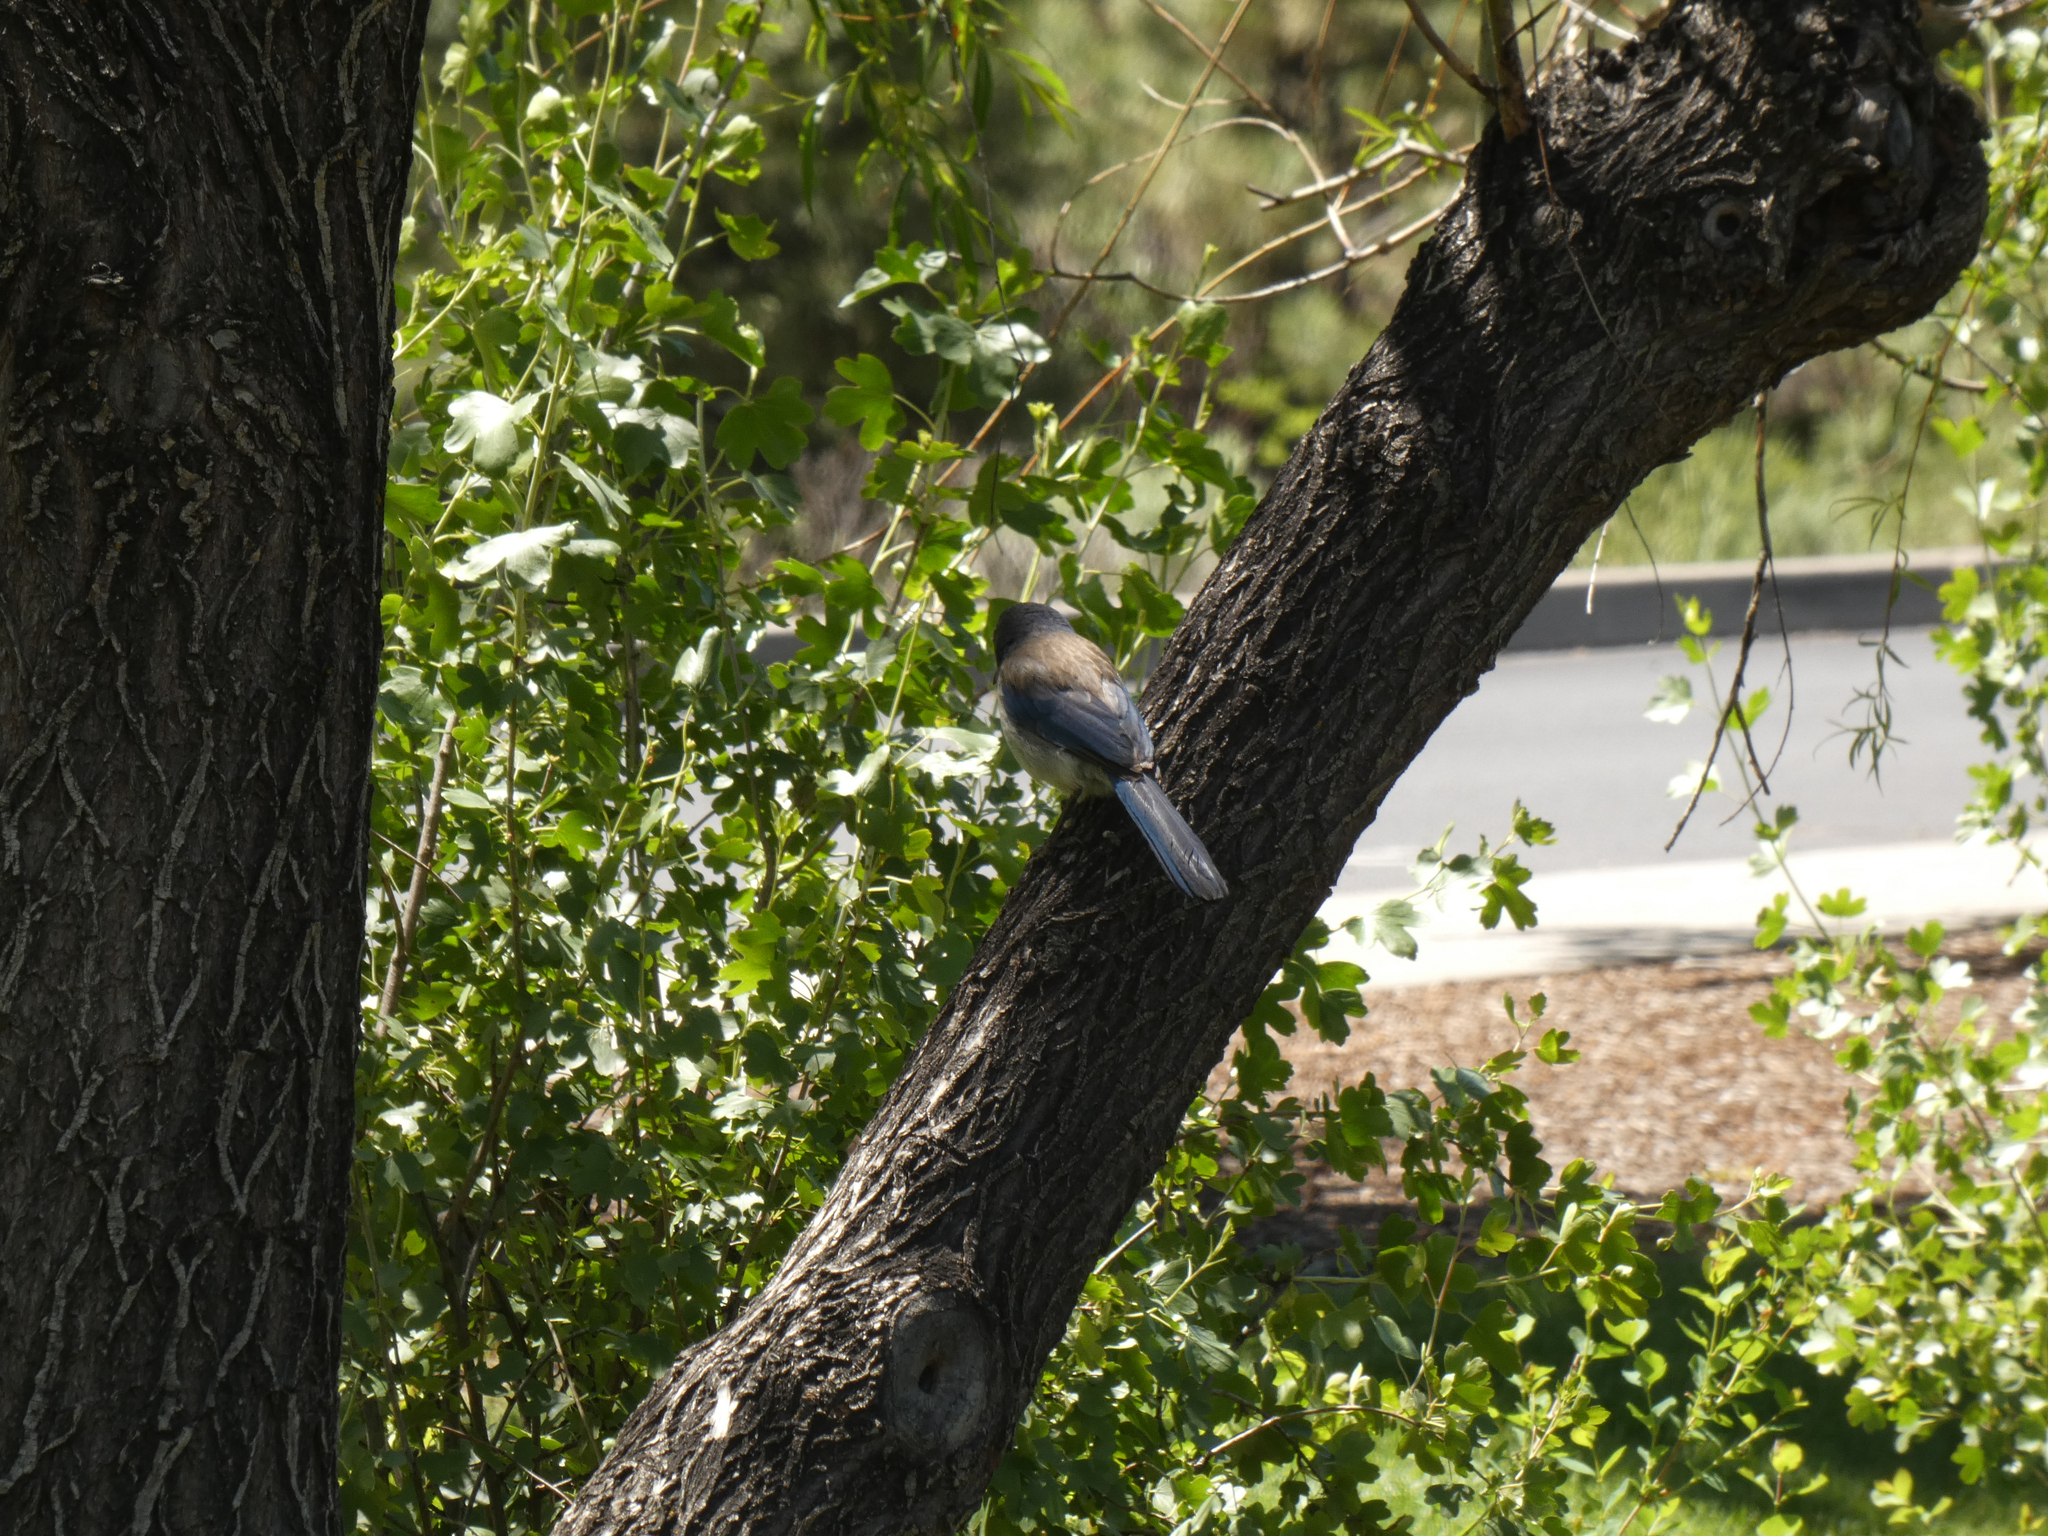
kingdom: Animalia
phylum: Chordata
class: Aves
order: Passeriformes
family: Corvidae
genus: Aphelocoma
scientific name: Aphelocoma californica
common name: California scrub-jay
